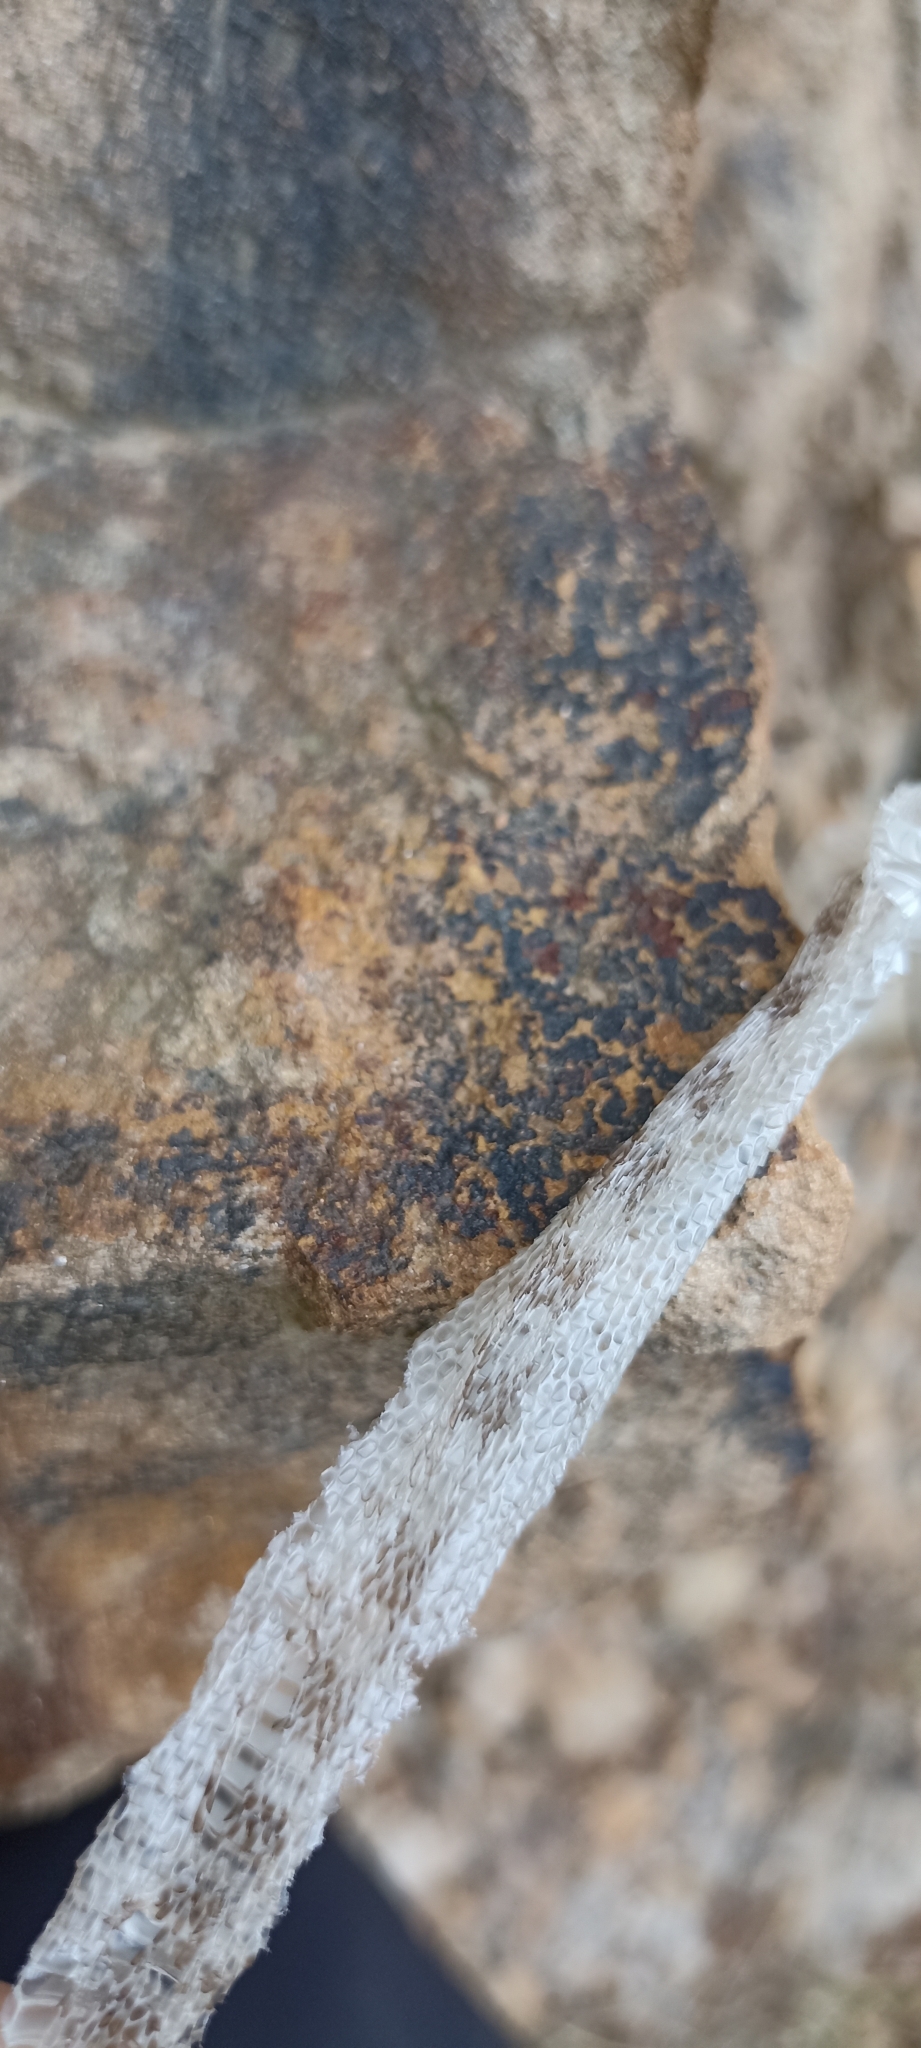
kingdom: Animalia
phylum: Chordata
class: Squamata
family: Colubridae
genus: Zamenis
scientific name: Zamenis scalaris
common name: Ladder snakes
